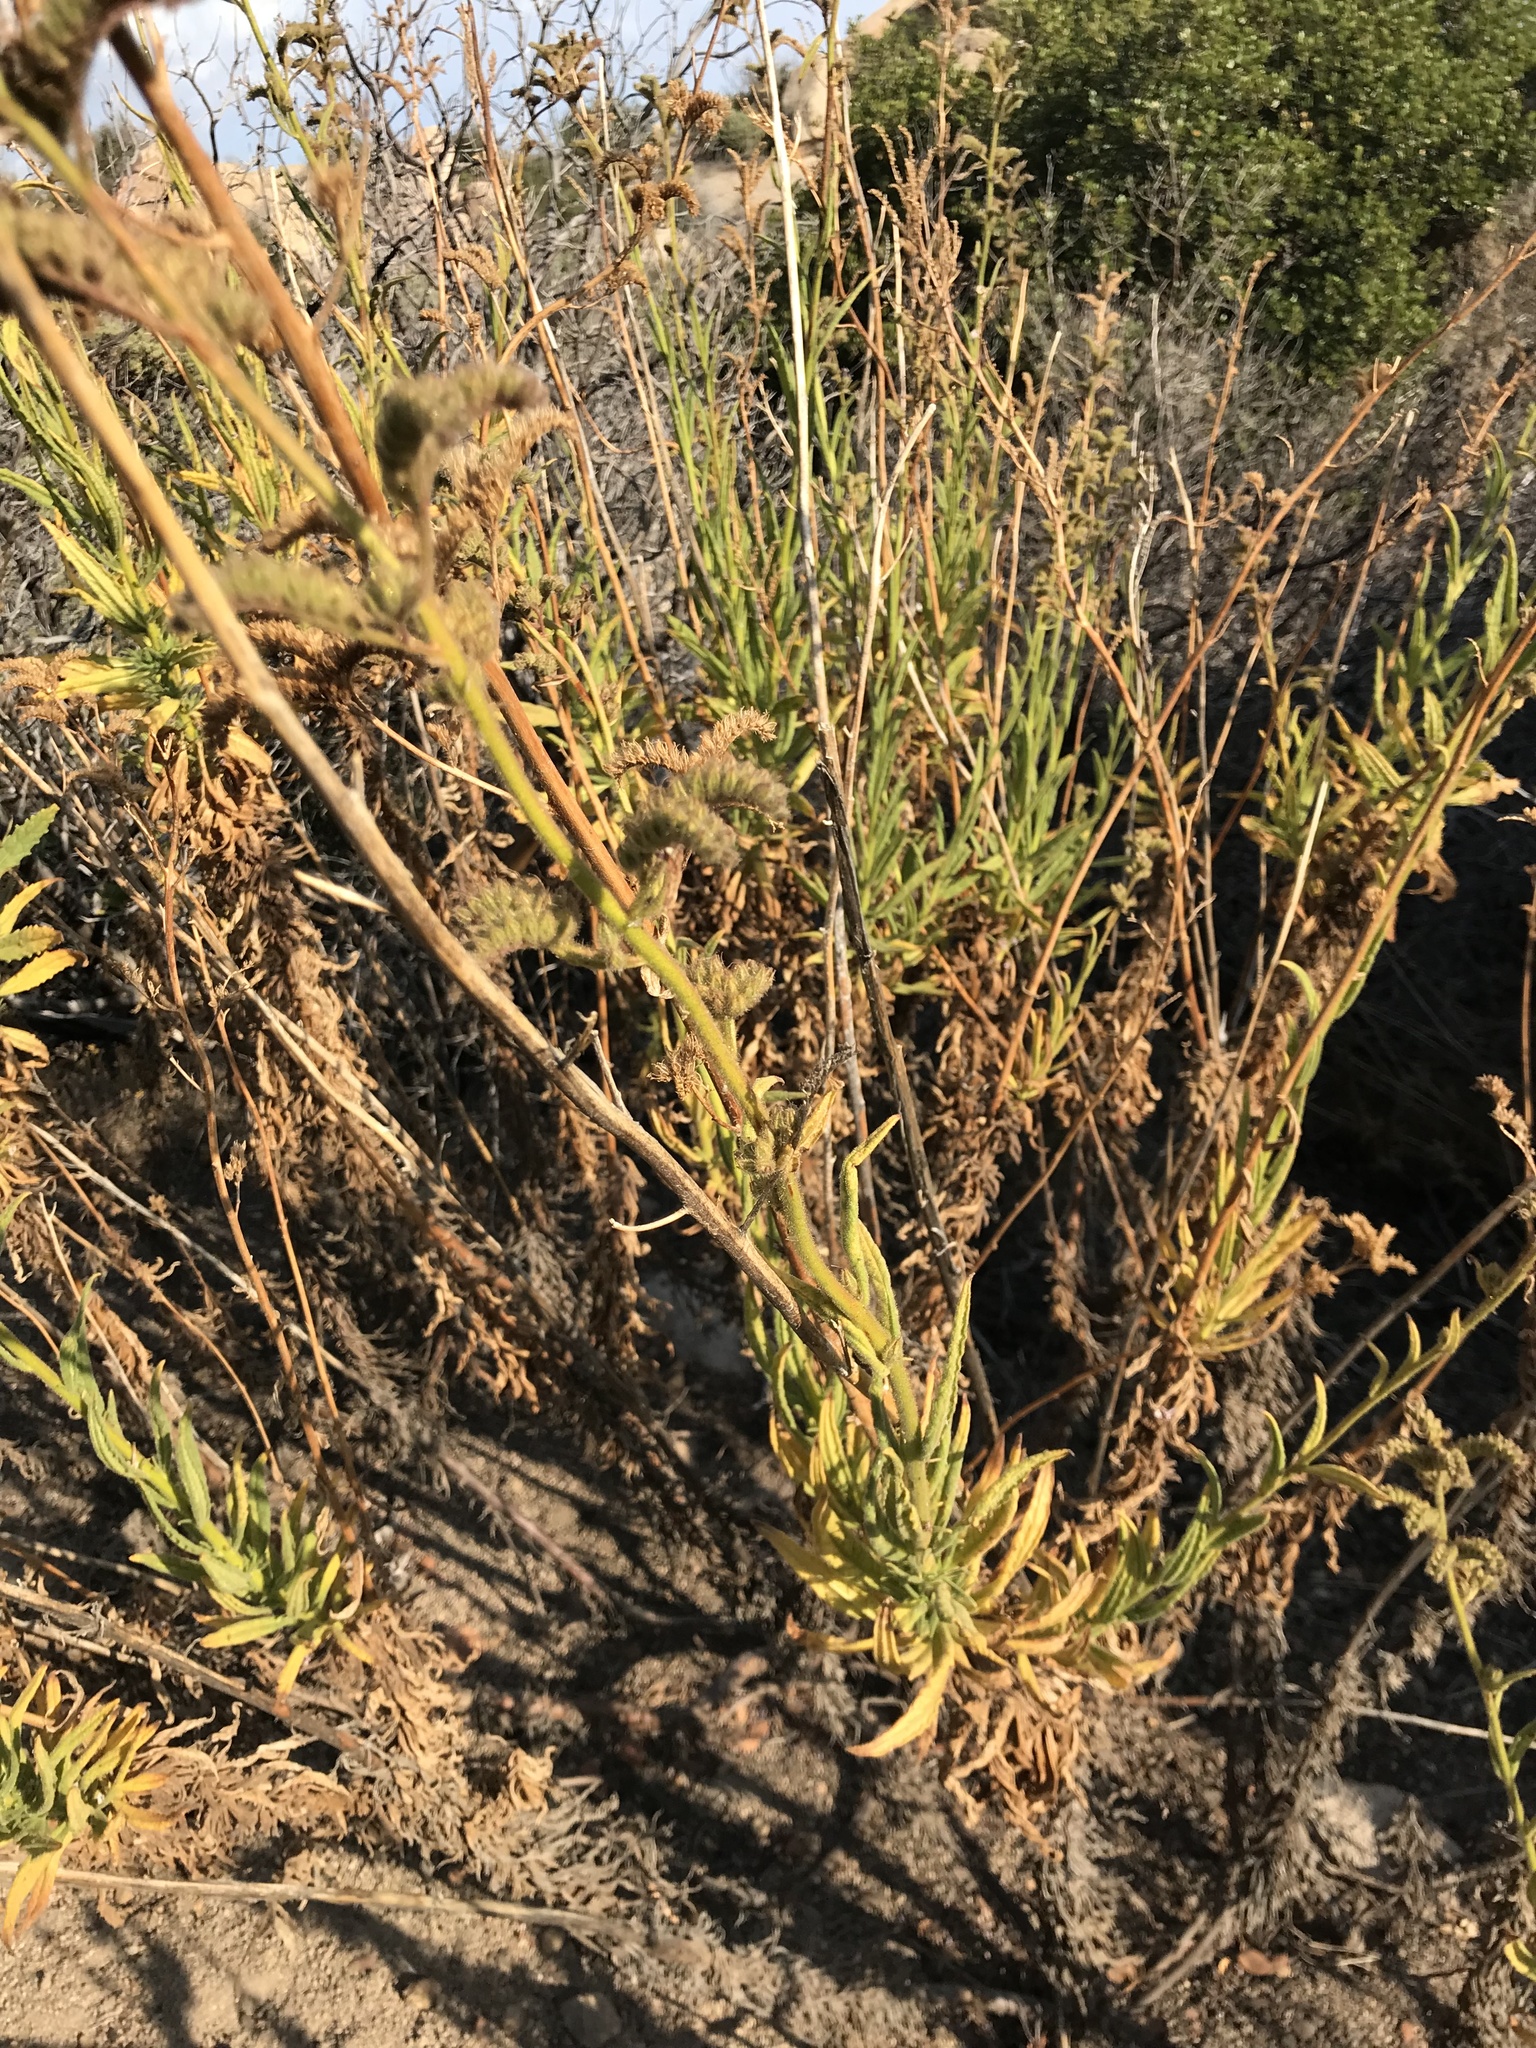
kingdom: Plantae
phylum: Tracheophyta
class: Magnoliopsida
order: Boraginales
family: Namaceae
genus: Turricula
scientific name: Turricula parryi
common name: Poodle-dog-bush
